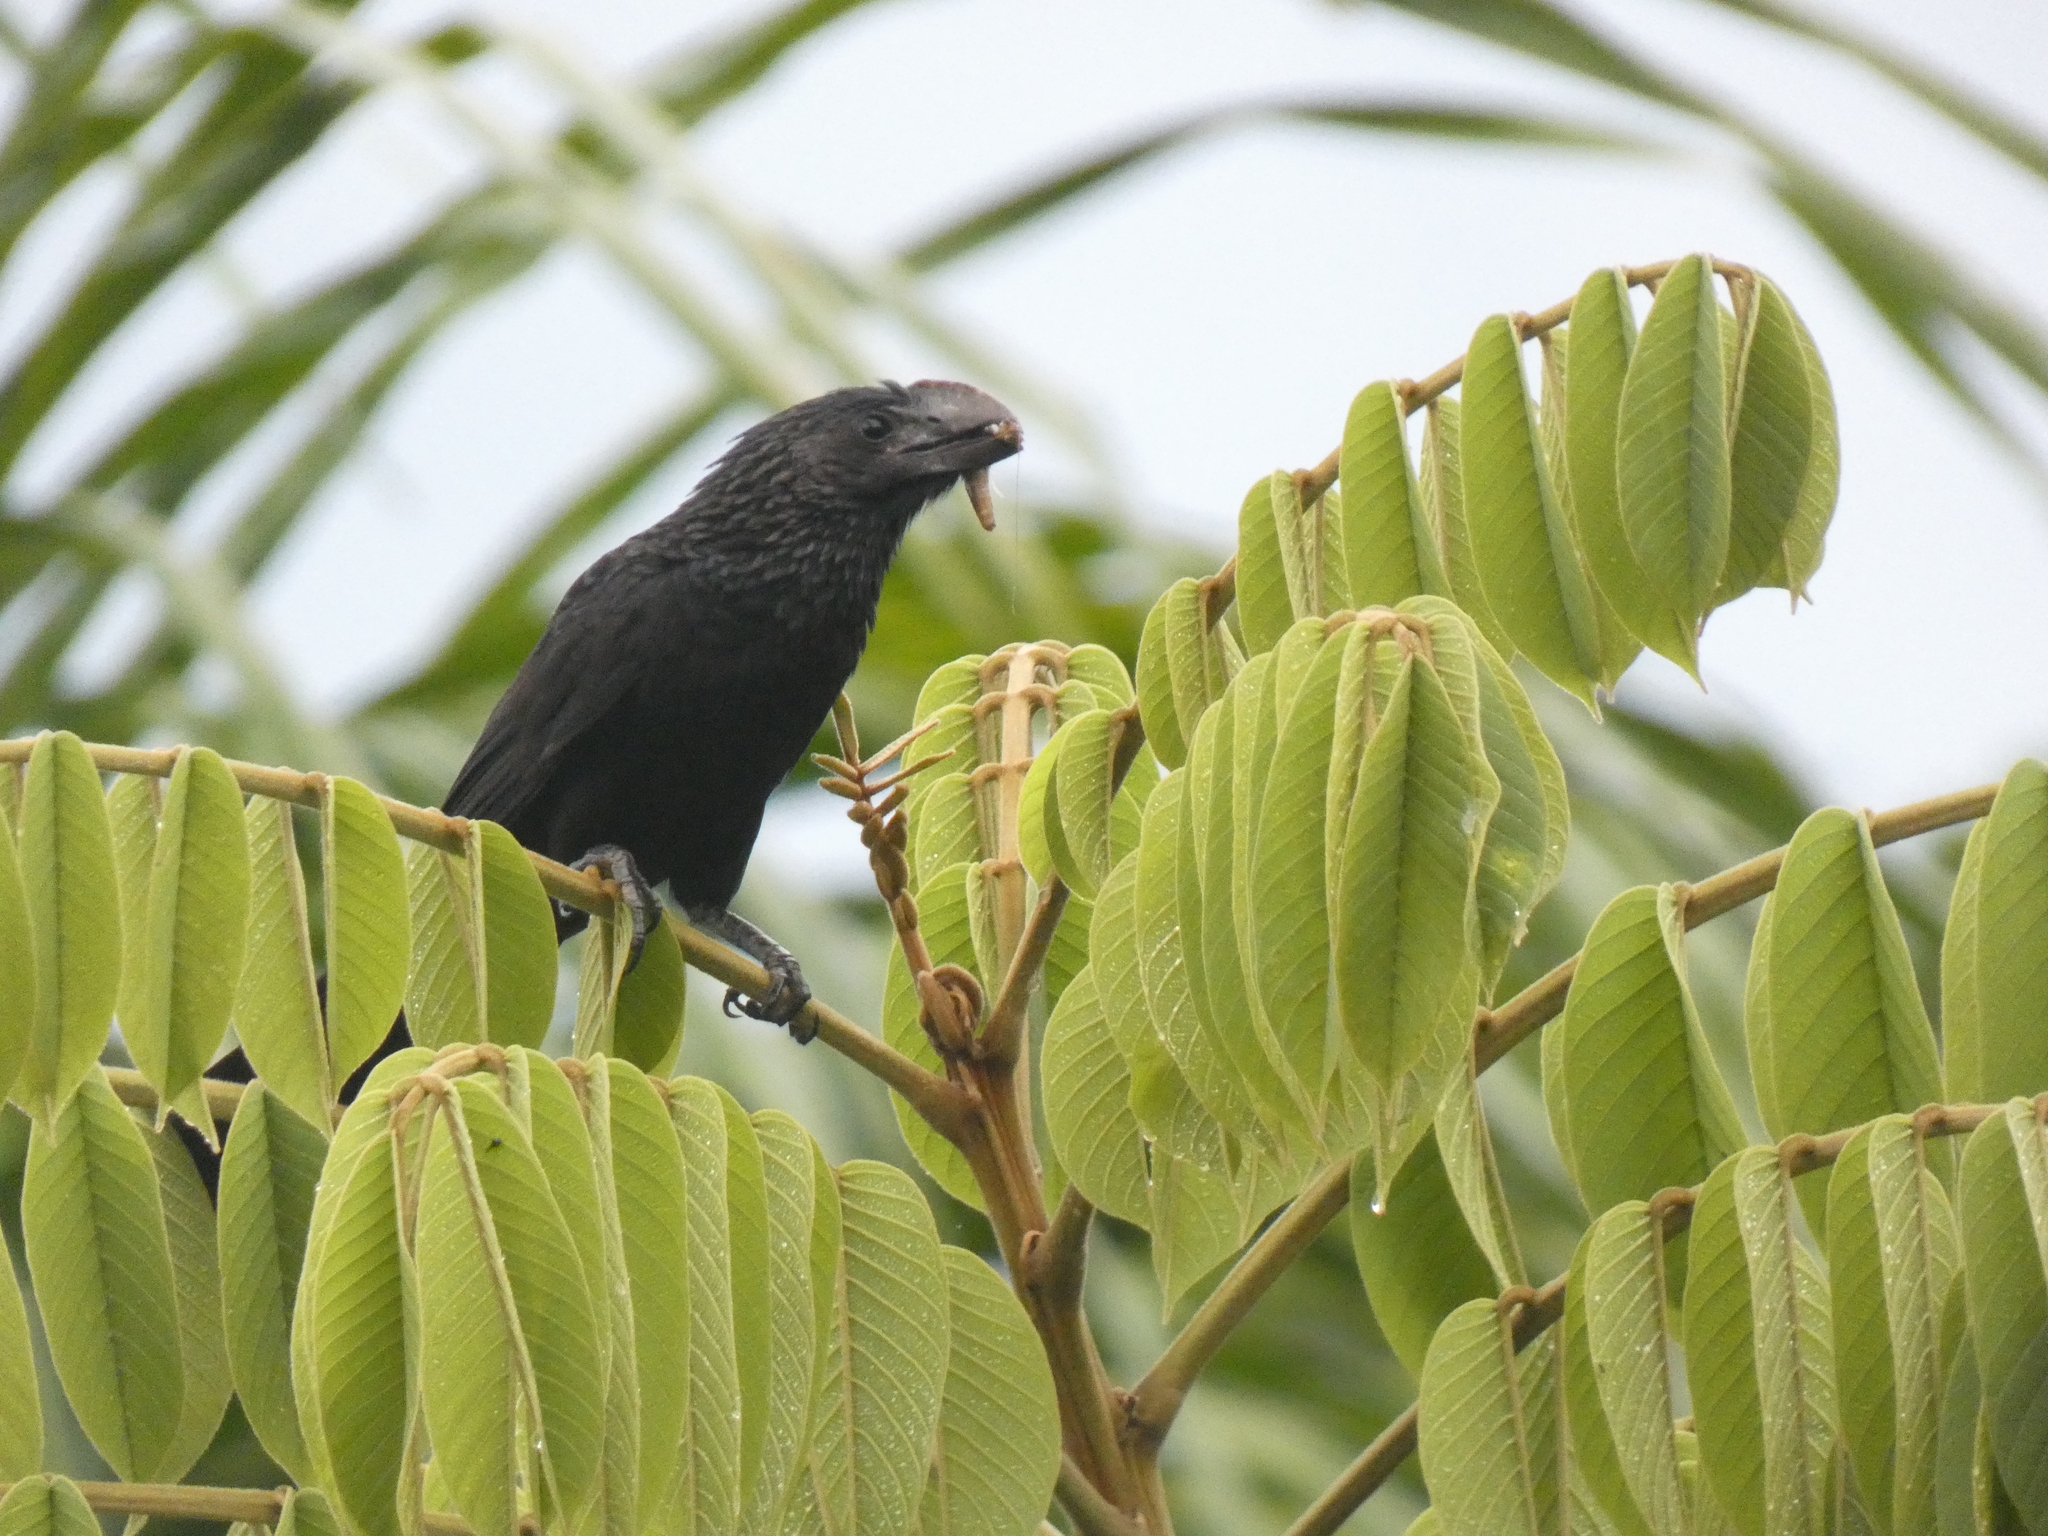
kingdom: Animalia
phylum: Chordata
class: Aves
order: Cuculiformes
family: Cuculidae
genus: Crotophaga
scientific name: Crotophaga ani
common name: Smooth-billed ani
